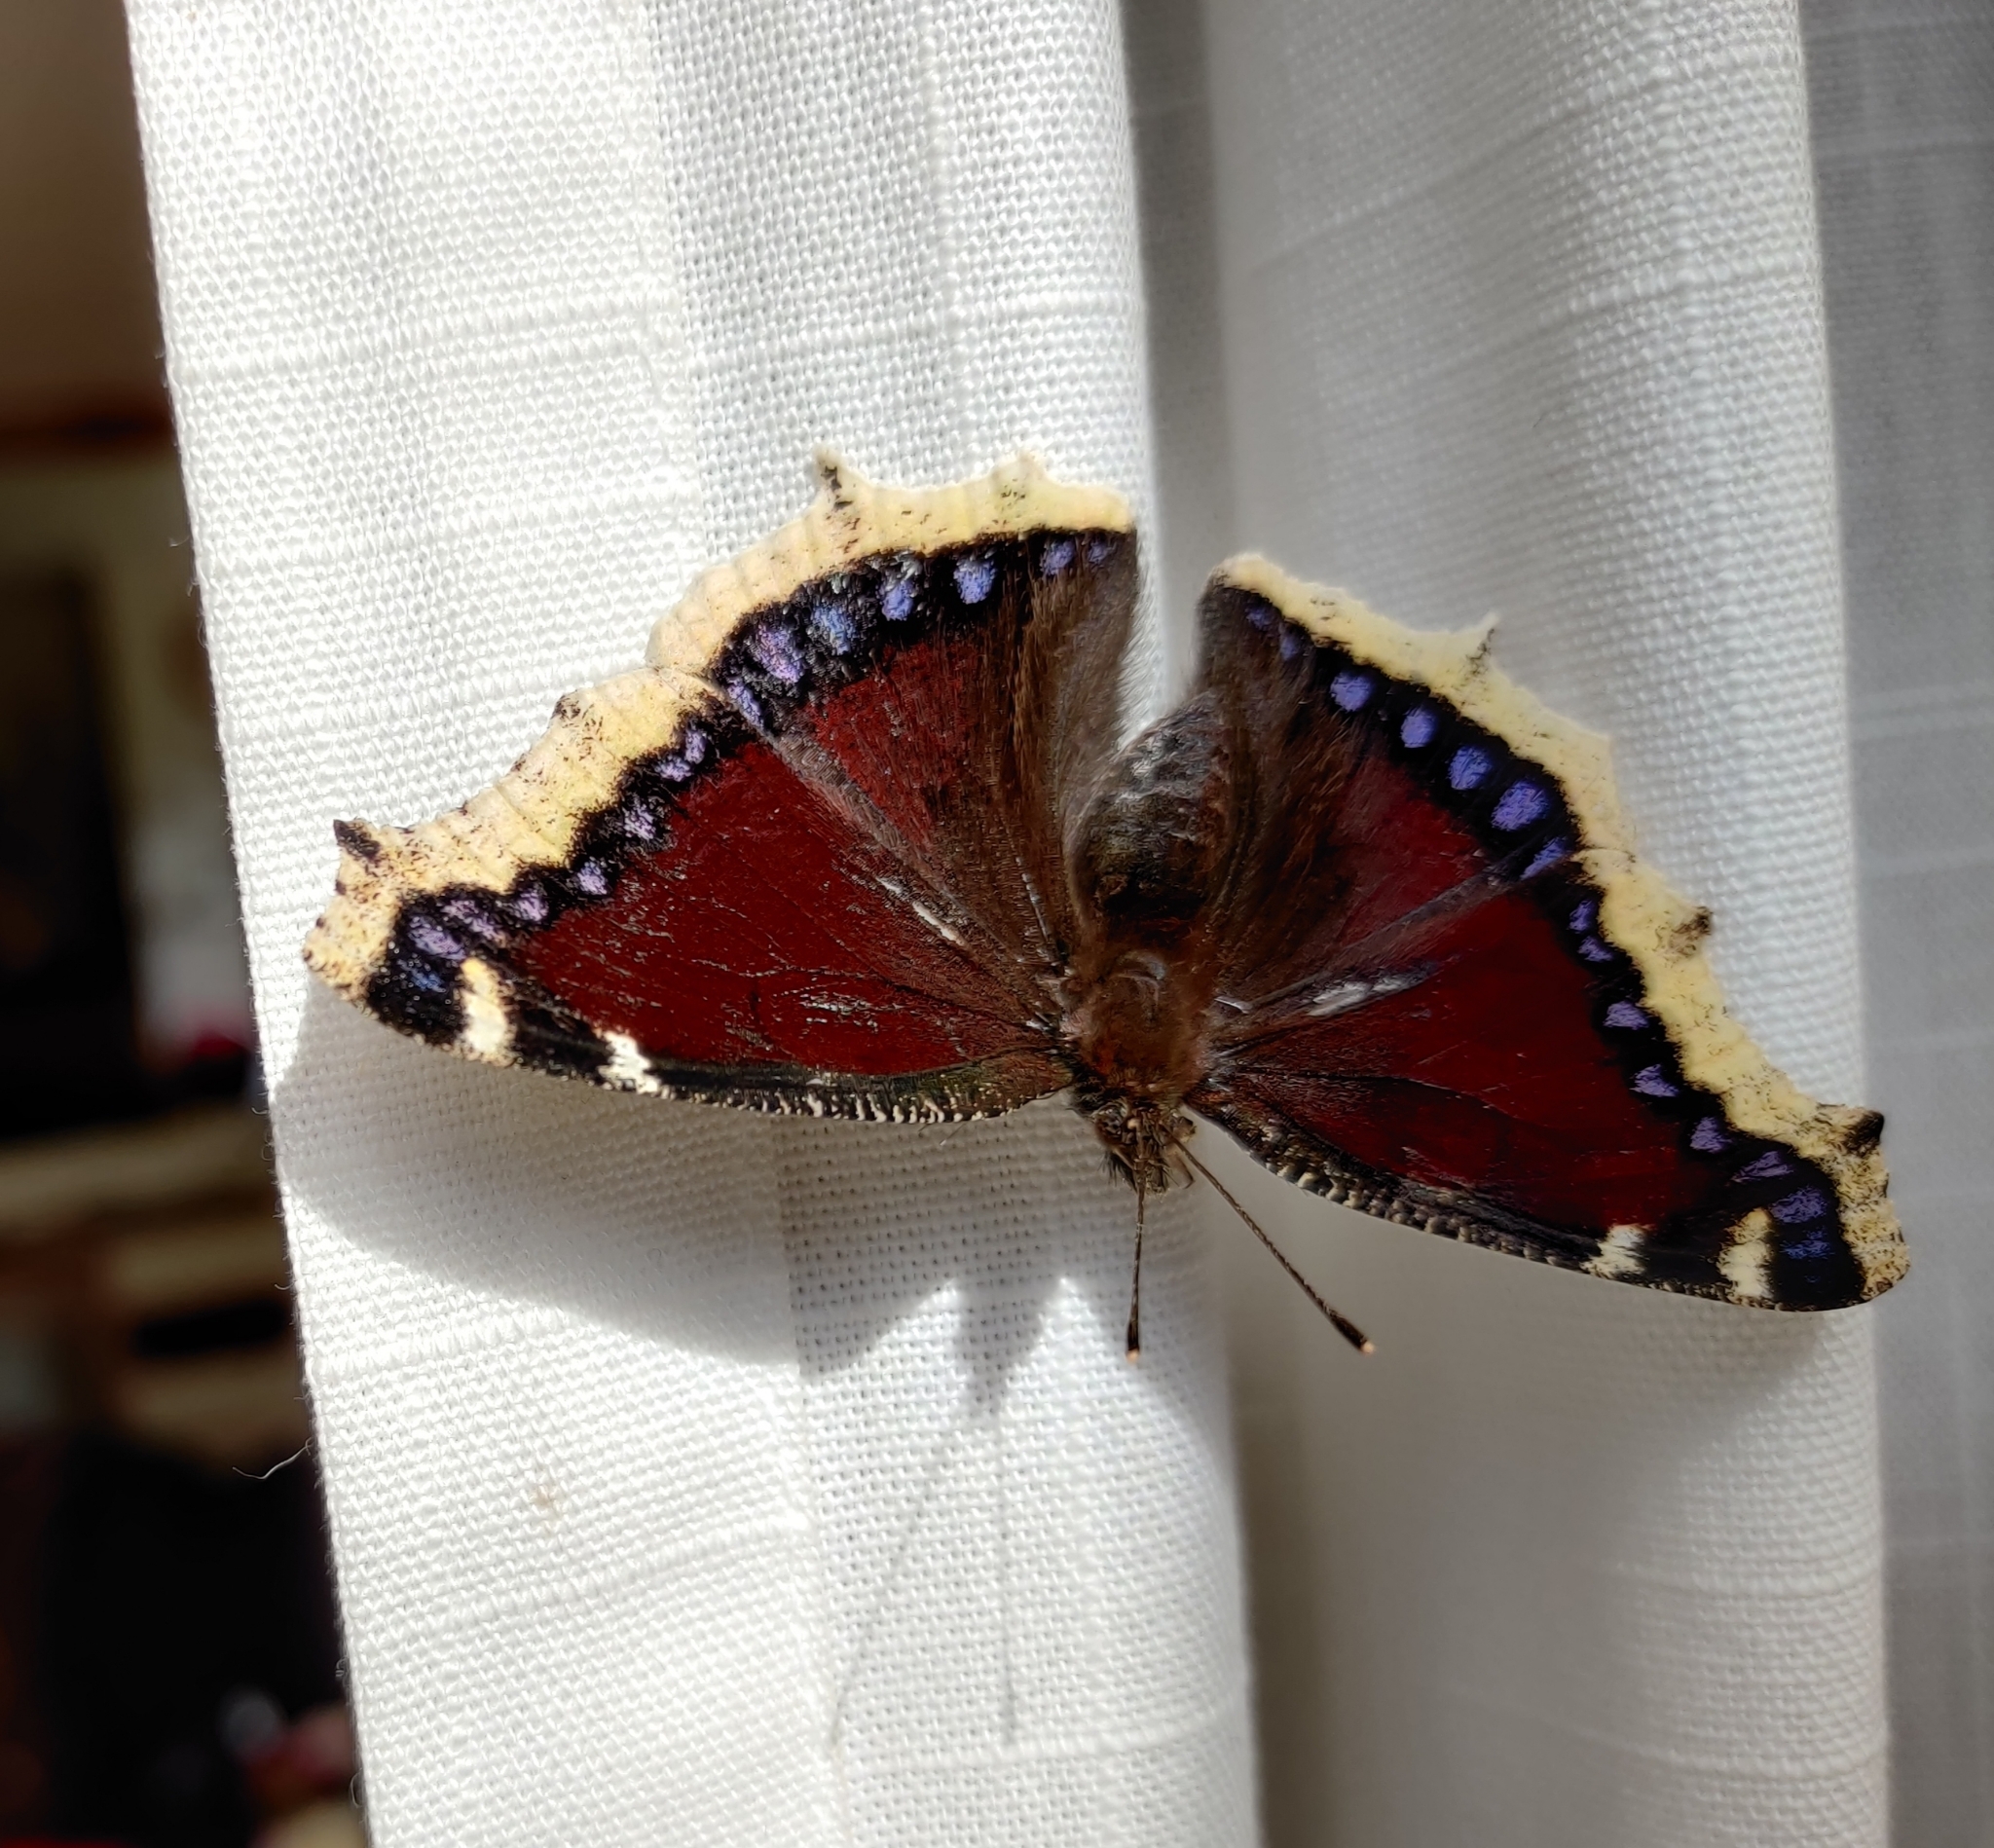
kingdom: Animalia
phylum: Arthropoda
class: Insecta
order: Lepidoptera
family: Nymphalidae
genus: Nymphalis
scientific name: Nymphalis antiopa
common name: Camberwell beauty
